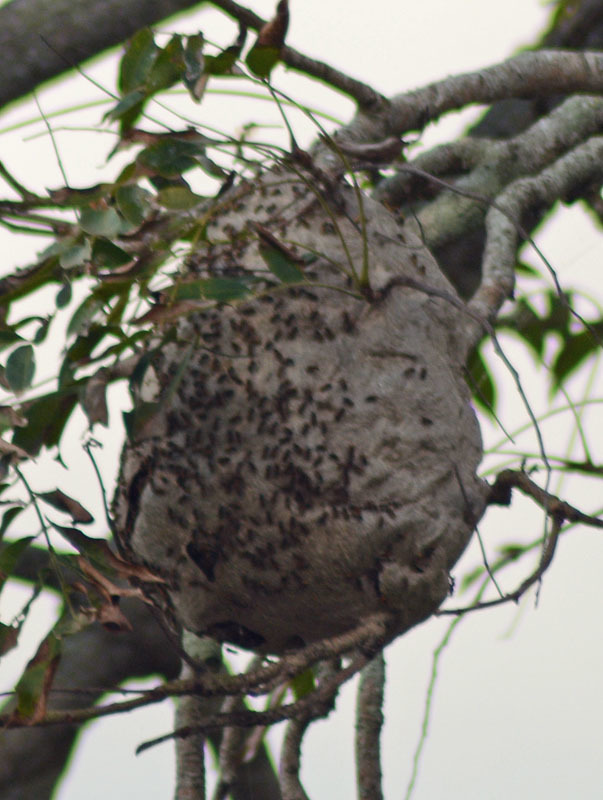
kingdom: Animalia
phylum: Arthropoda
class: Insecta
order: Hymenoptera
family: Vespidae
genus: Brachygastra
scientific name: Brachygastra mellifica
